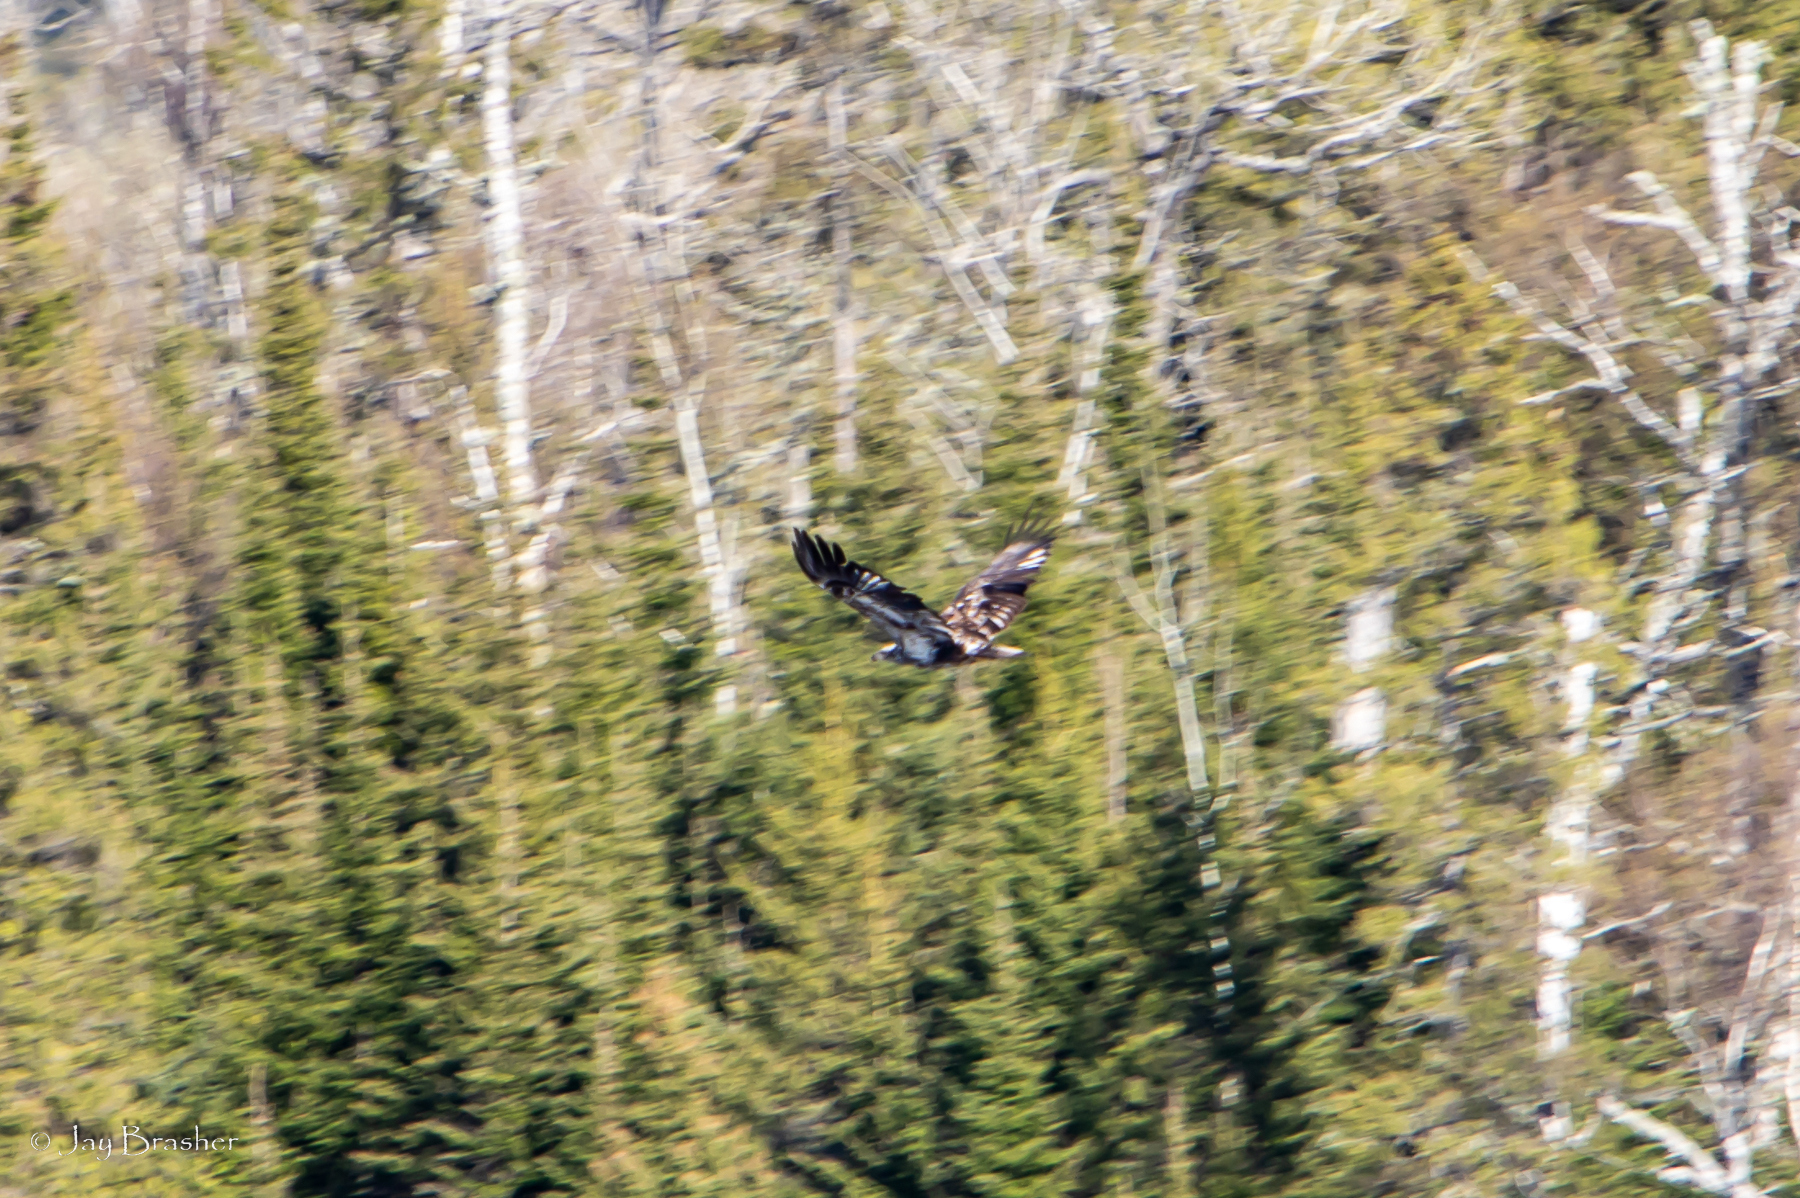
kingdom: Animalia
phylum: Chordata
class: Aves
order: Accipitriformes
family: Accipitridae
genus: Haliaeetus
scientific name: Haliaeetus leucocephalus
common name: Bald eagle
